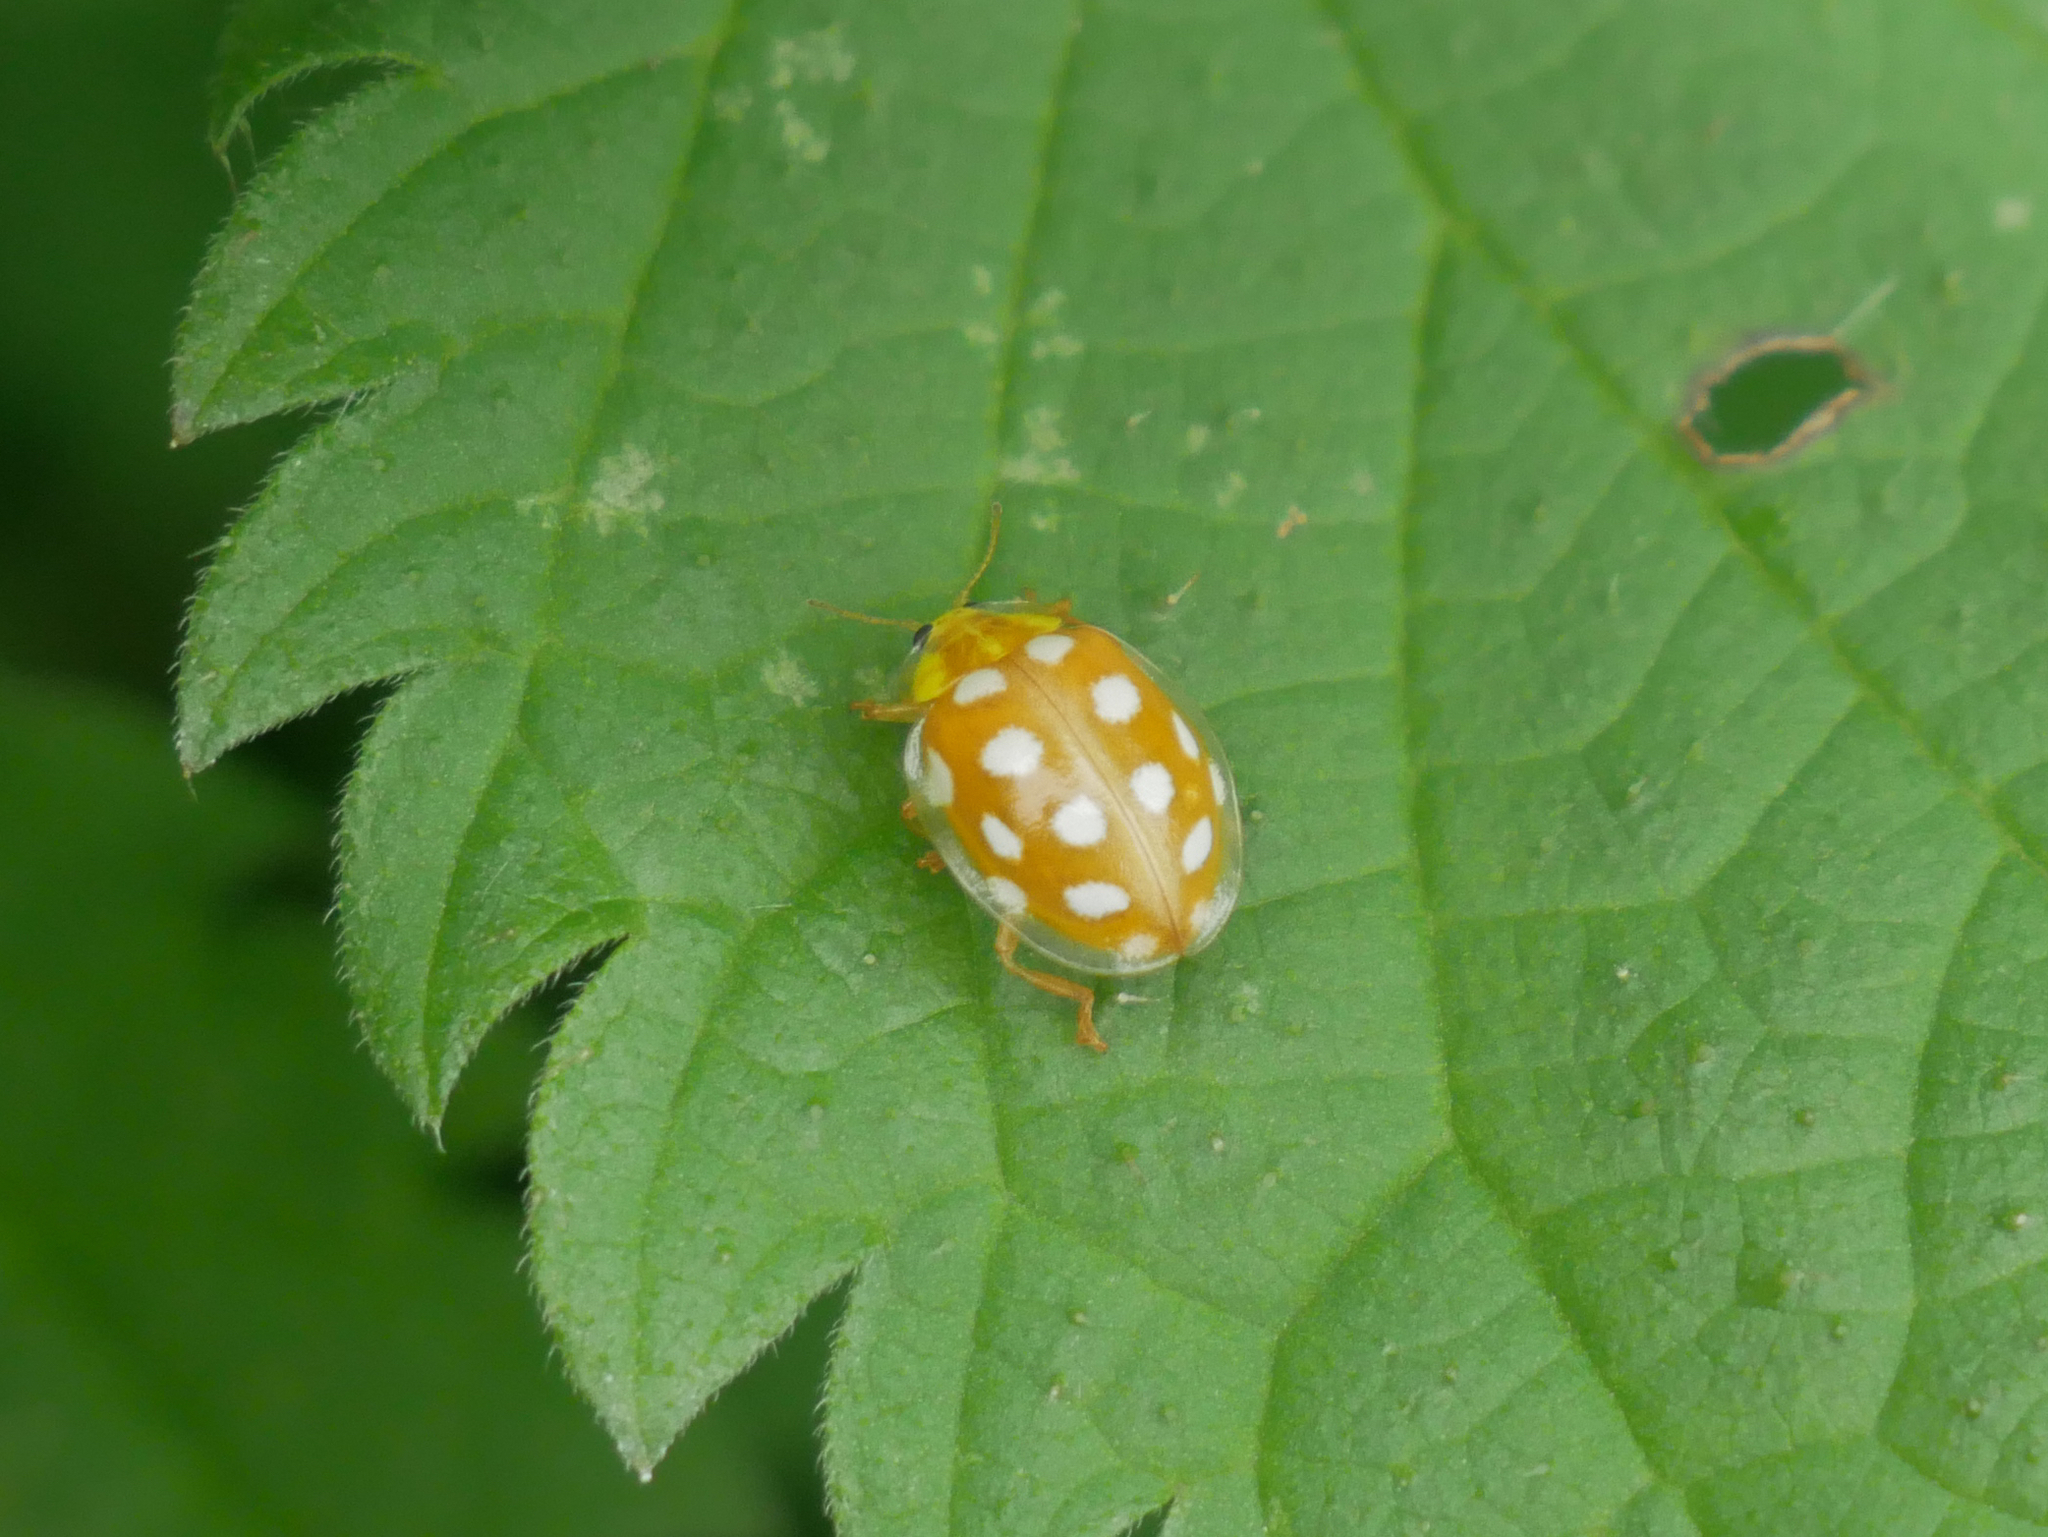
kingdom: Animalia
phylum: Arthropoda
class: Insecta
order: Coleoptera
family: Coccinellidae
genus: Halyzia
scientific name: Halyzia sedecimguttata
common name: Orange ladybird
